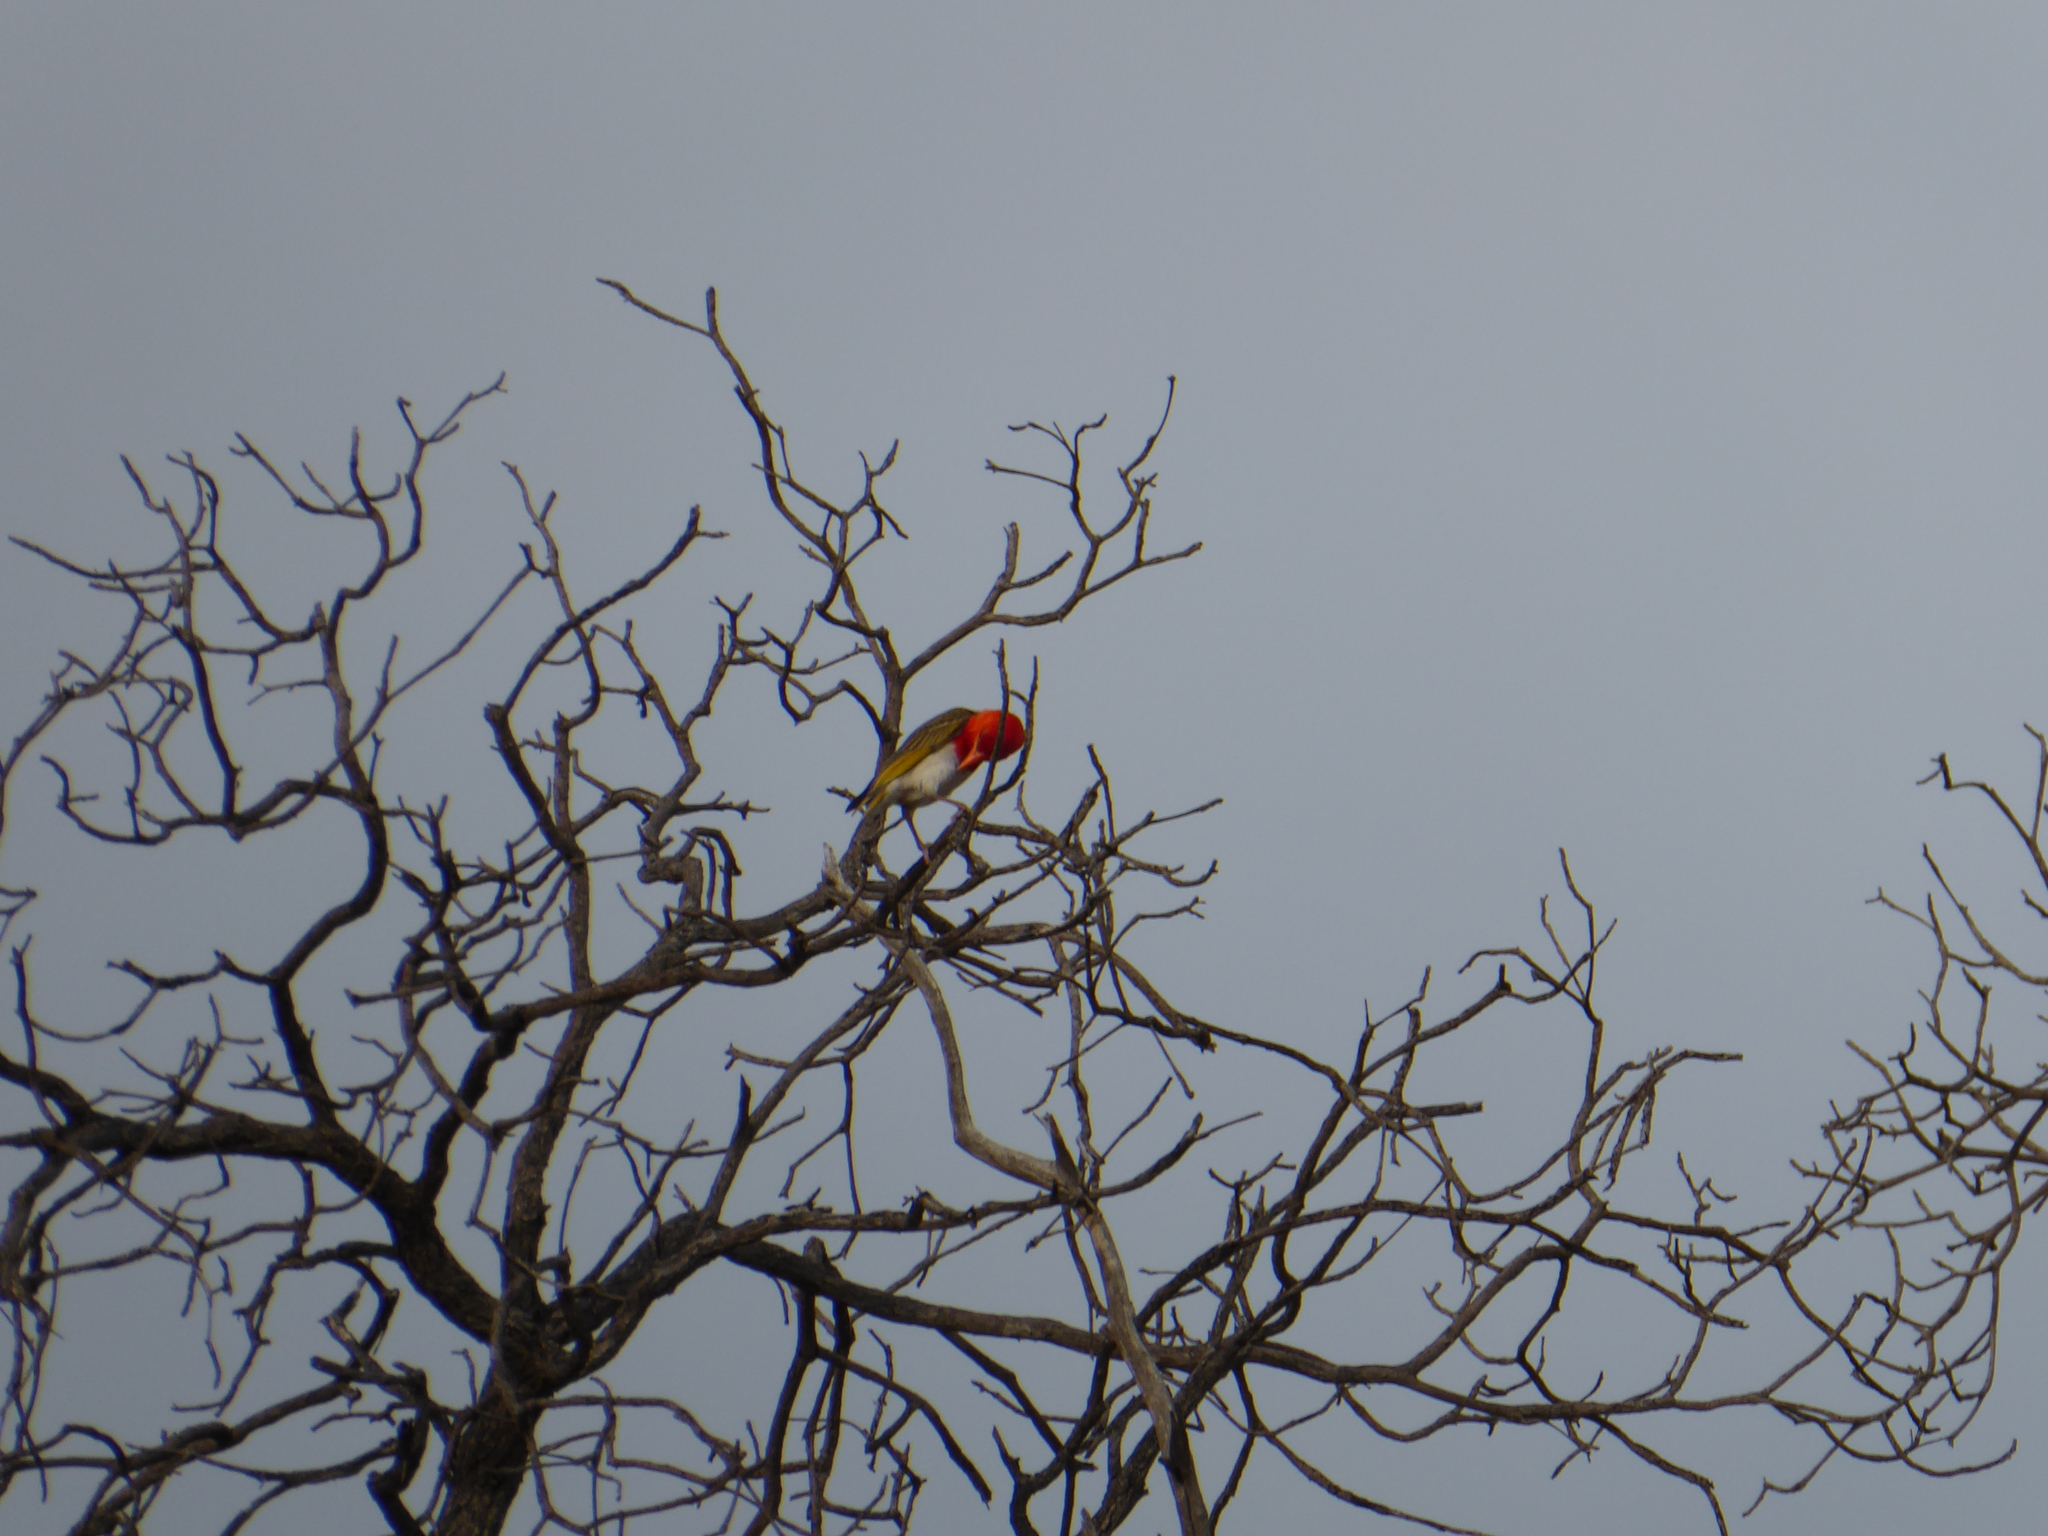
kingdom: Animalia
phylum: Chordata
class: Aves
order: Passeriformes
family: Ploceidae
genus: Anaplectes
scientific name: Anaplectes rubriceps
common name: Red-headed weaver
